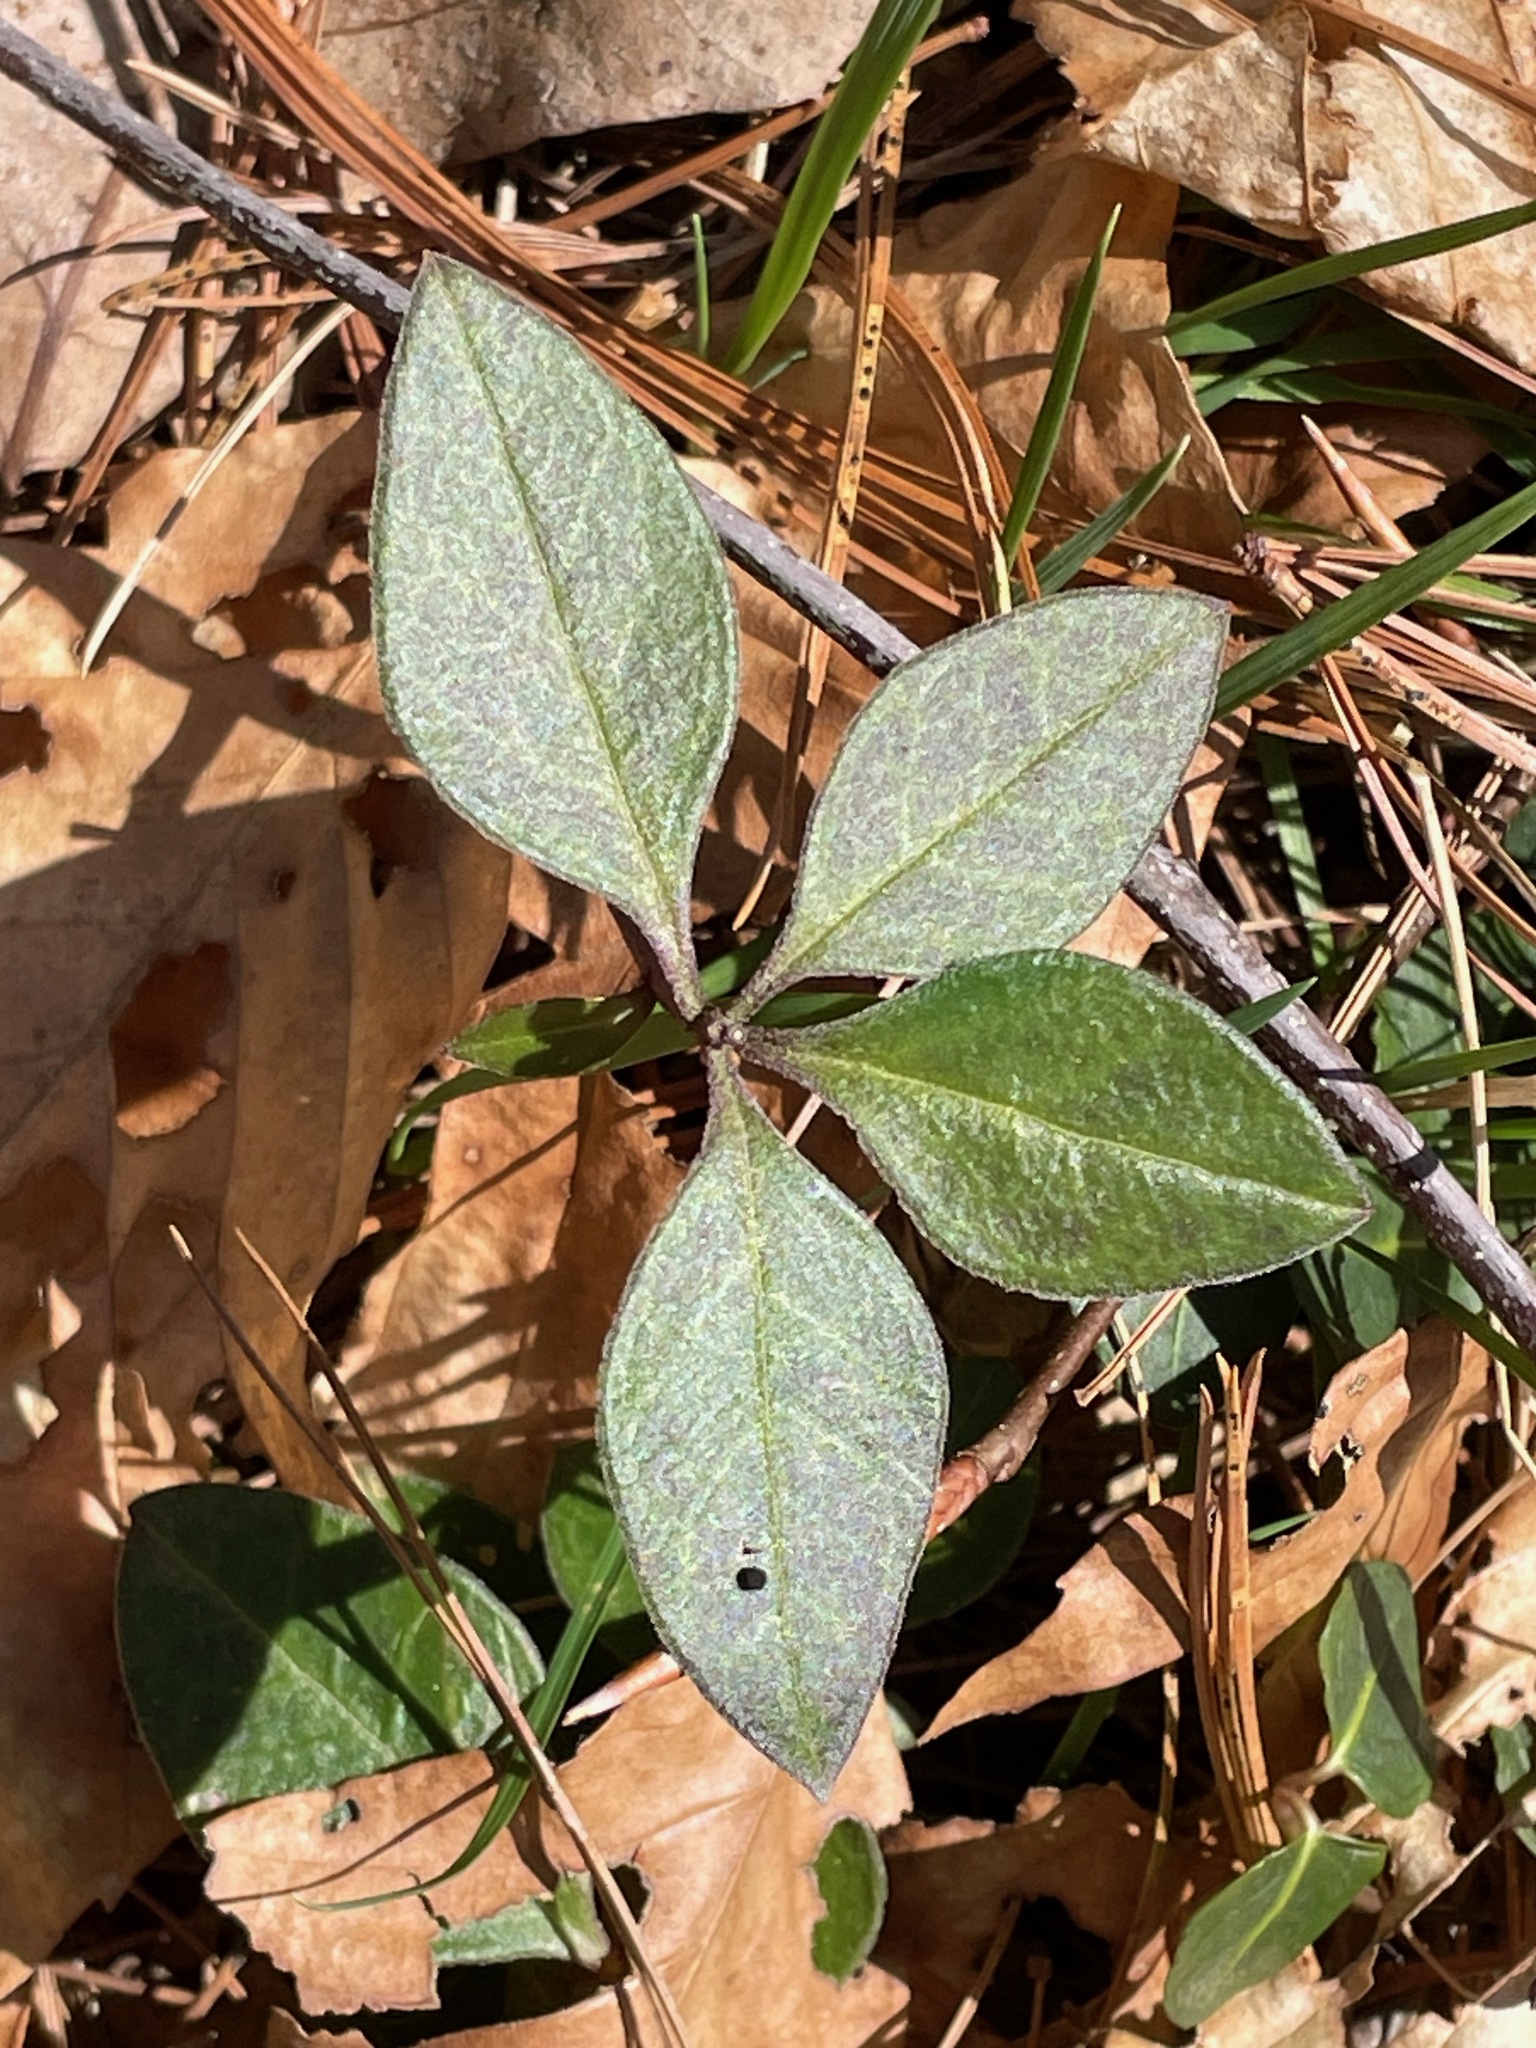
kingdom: Plantae
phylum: Tracheophyta
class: Magnoliopsida
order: Fabales
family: Polygalaceae
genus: Polygaloides
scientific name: Polygaloides paucifolia
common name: Bird-on-the-wing
